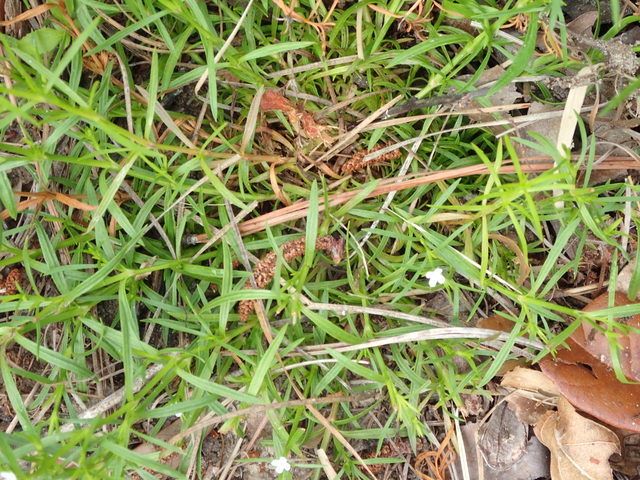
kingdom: Plantae
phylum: Tracheophyta
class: Magnoliopsida
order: Lamiales
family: Tetrachondraceae
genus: Polypremum
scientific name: Polypremum procumbens
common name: Juniper-leaf
